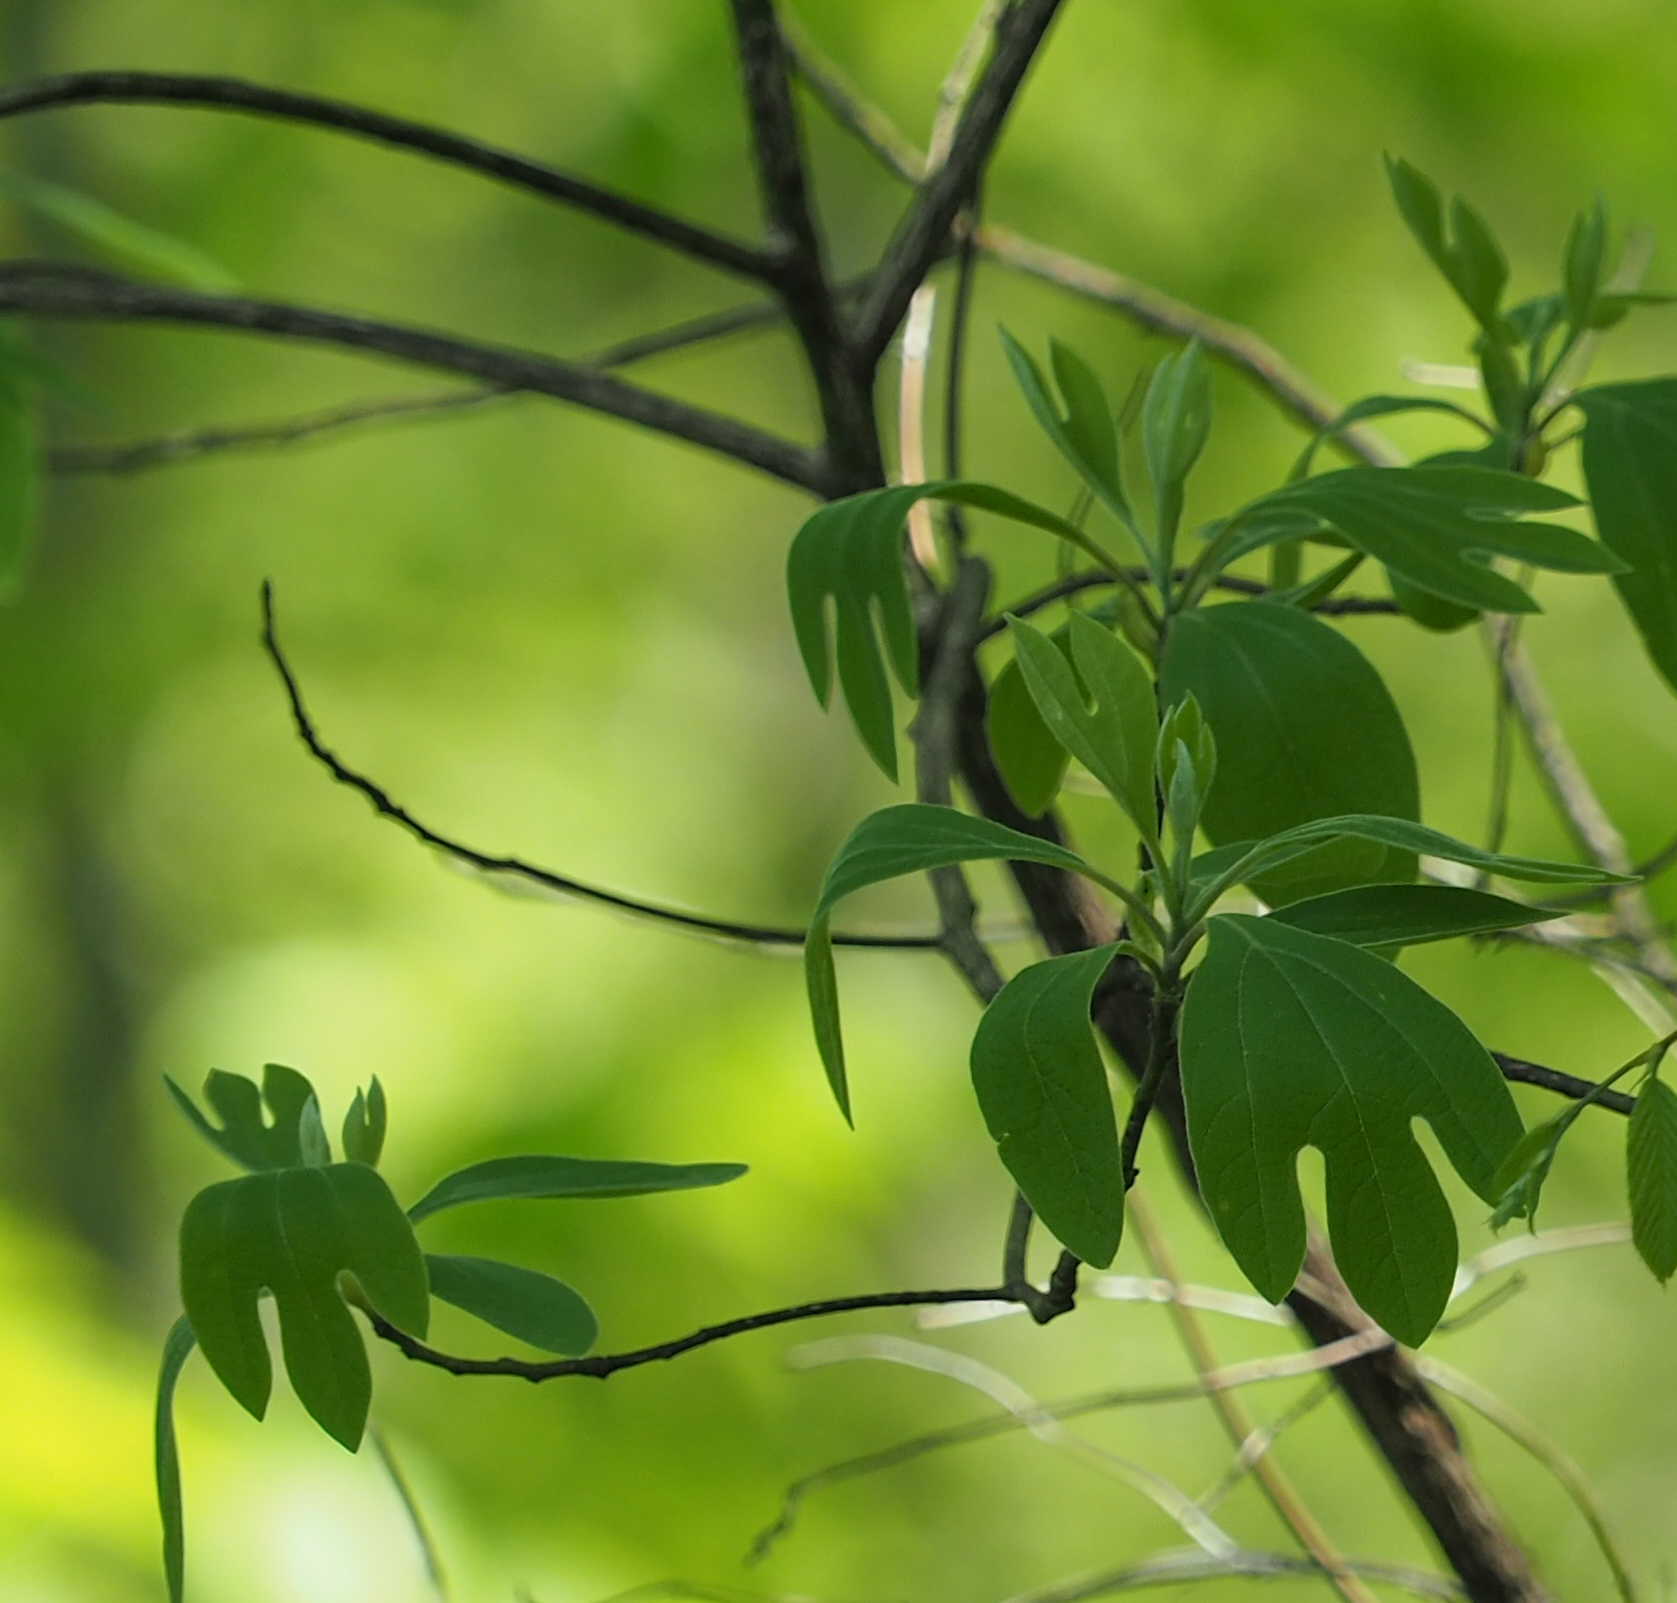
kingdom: Plantae
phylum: Tracheophyta
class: Magnoliopsida
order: Laurales
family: Lauraceae
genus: Sassafras
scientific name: Sassafras albidum
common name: Sassafras
